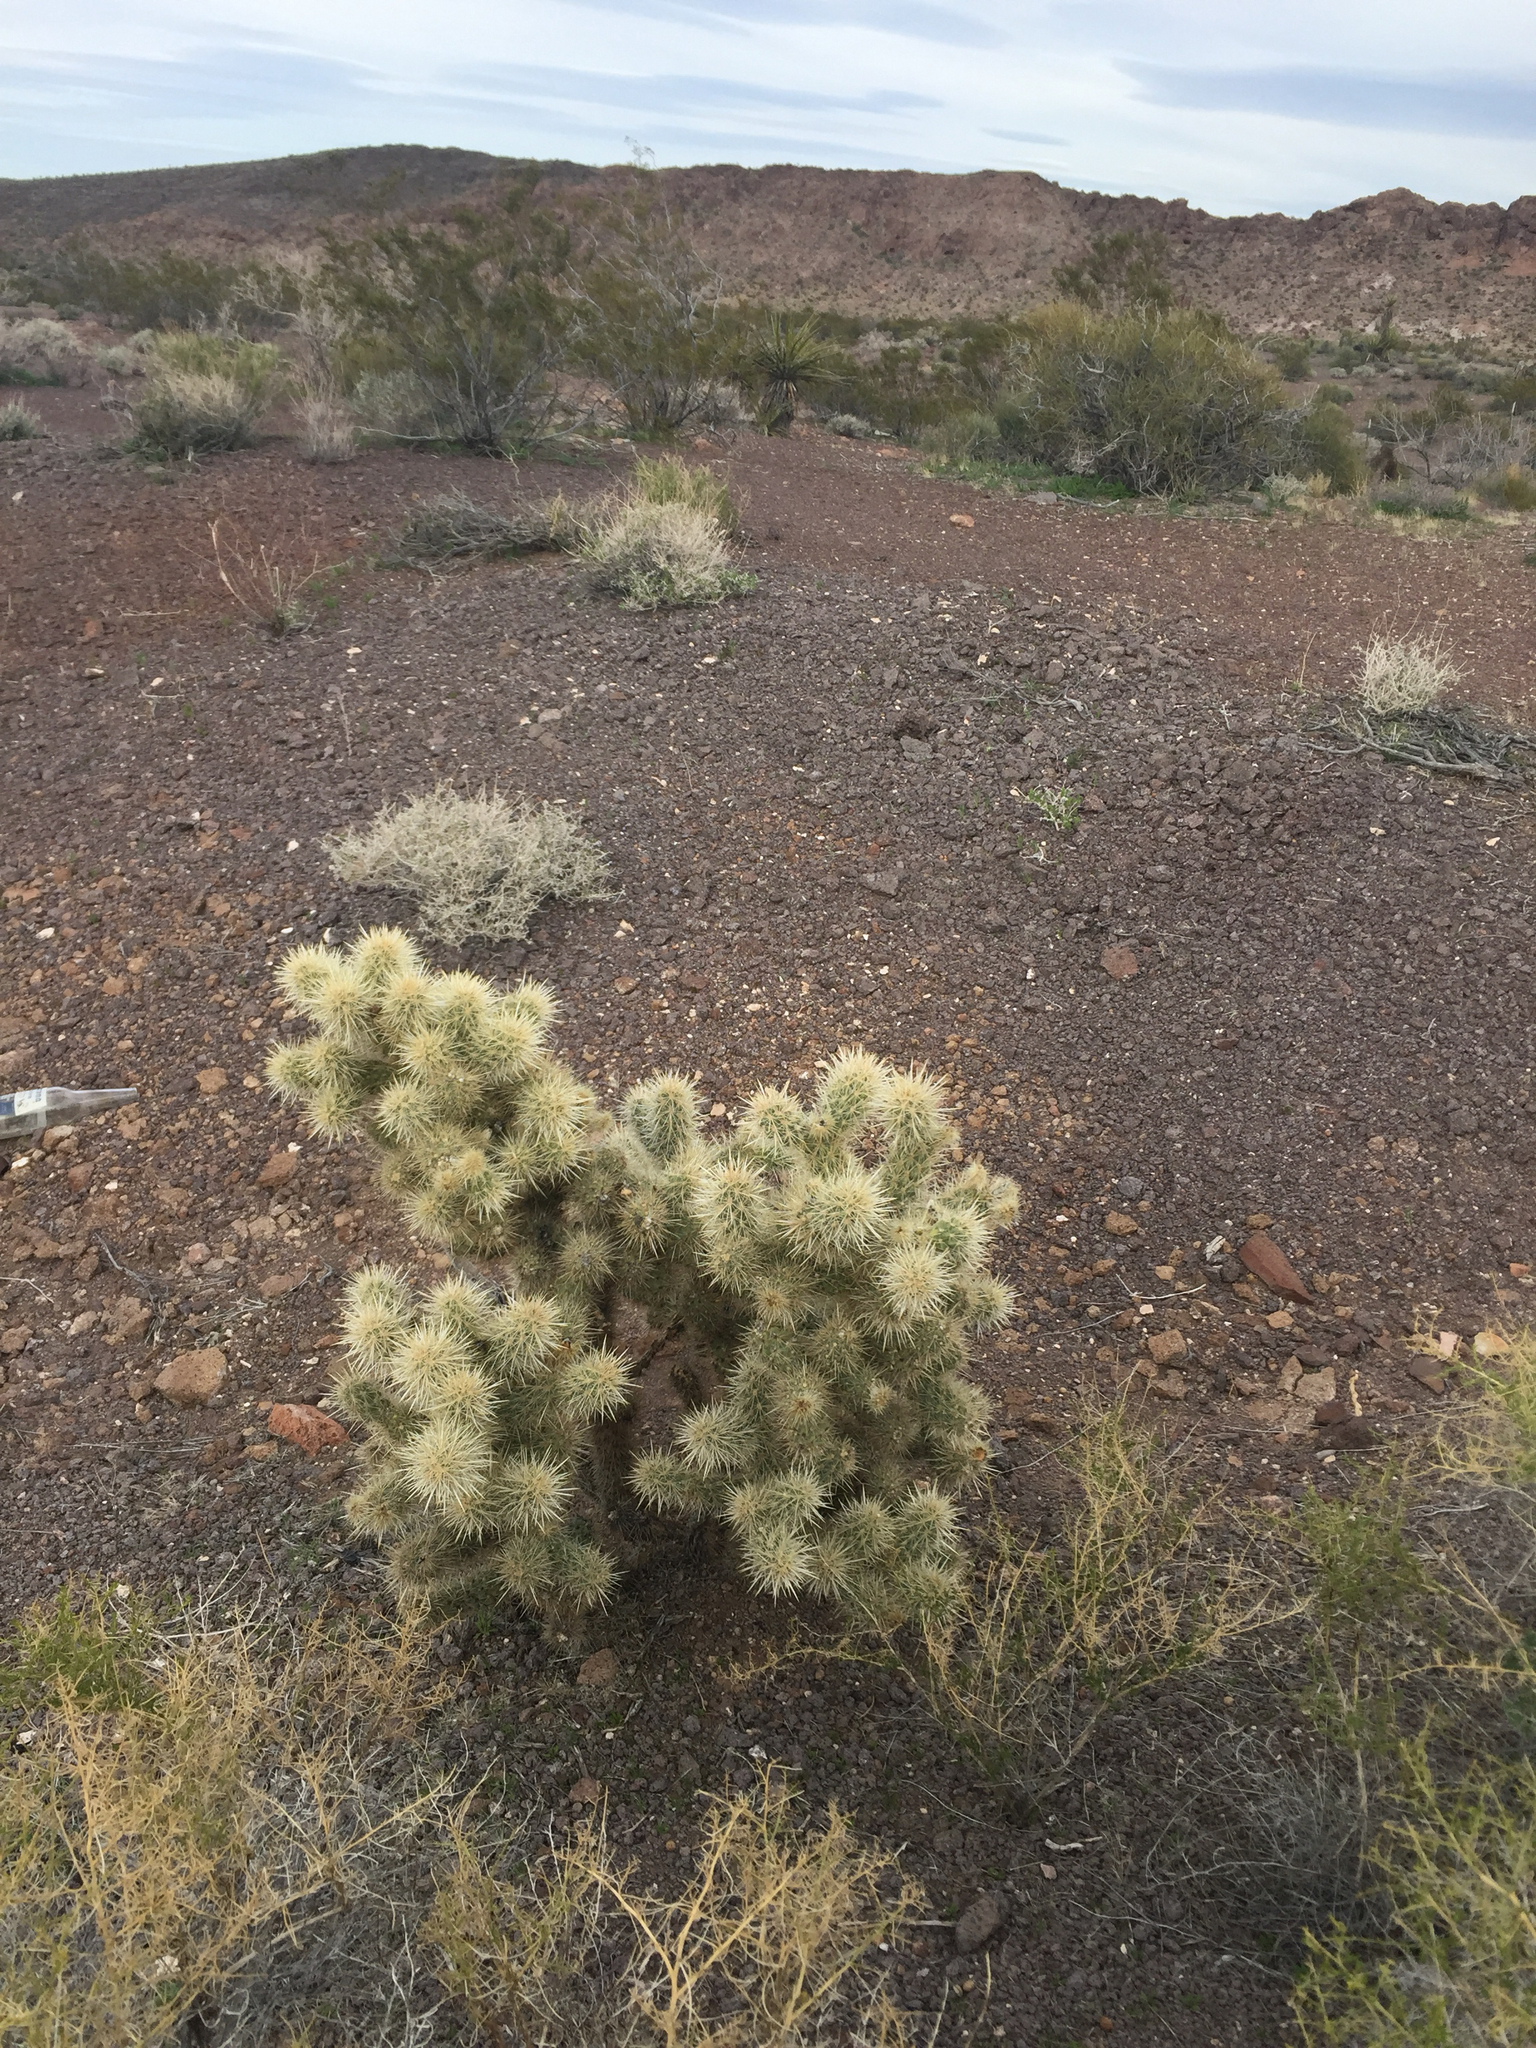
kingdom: Plantae
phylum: Tracheophyta
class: Magnoliopsida
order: Caryophyllales
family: Cactaceae
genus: Cylindropuntia
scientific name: Cylindropuntia echinocarpa
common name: Ground cholla
